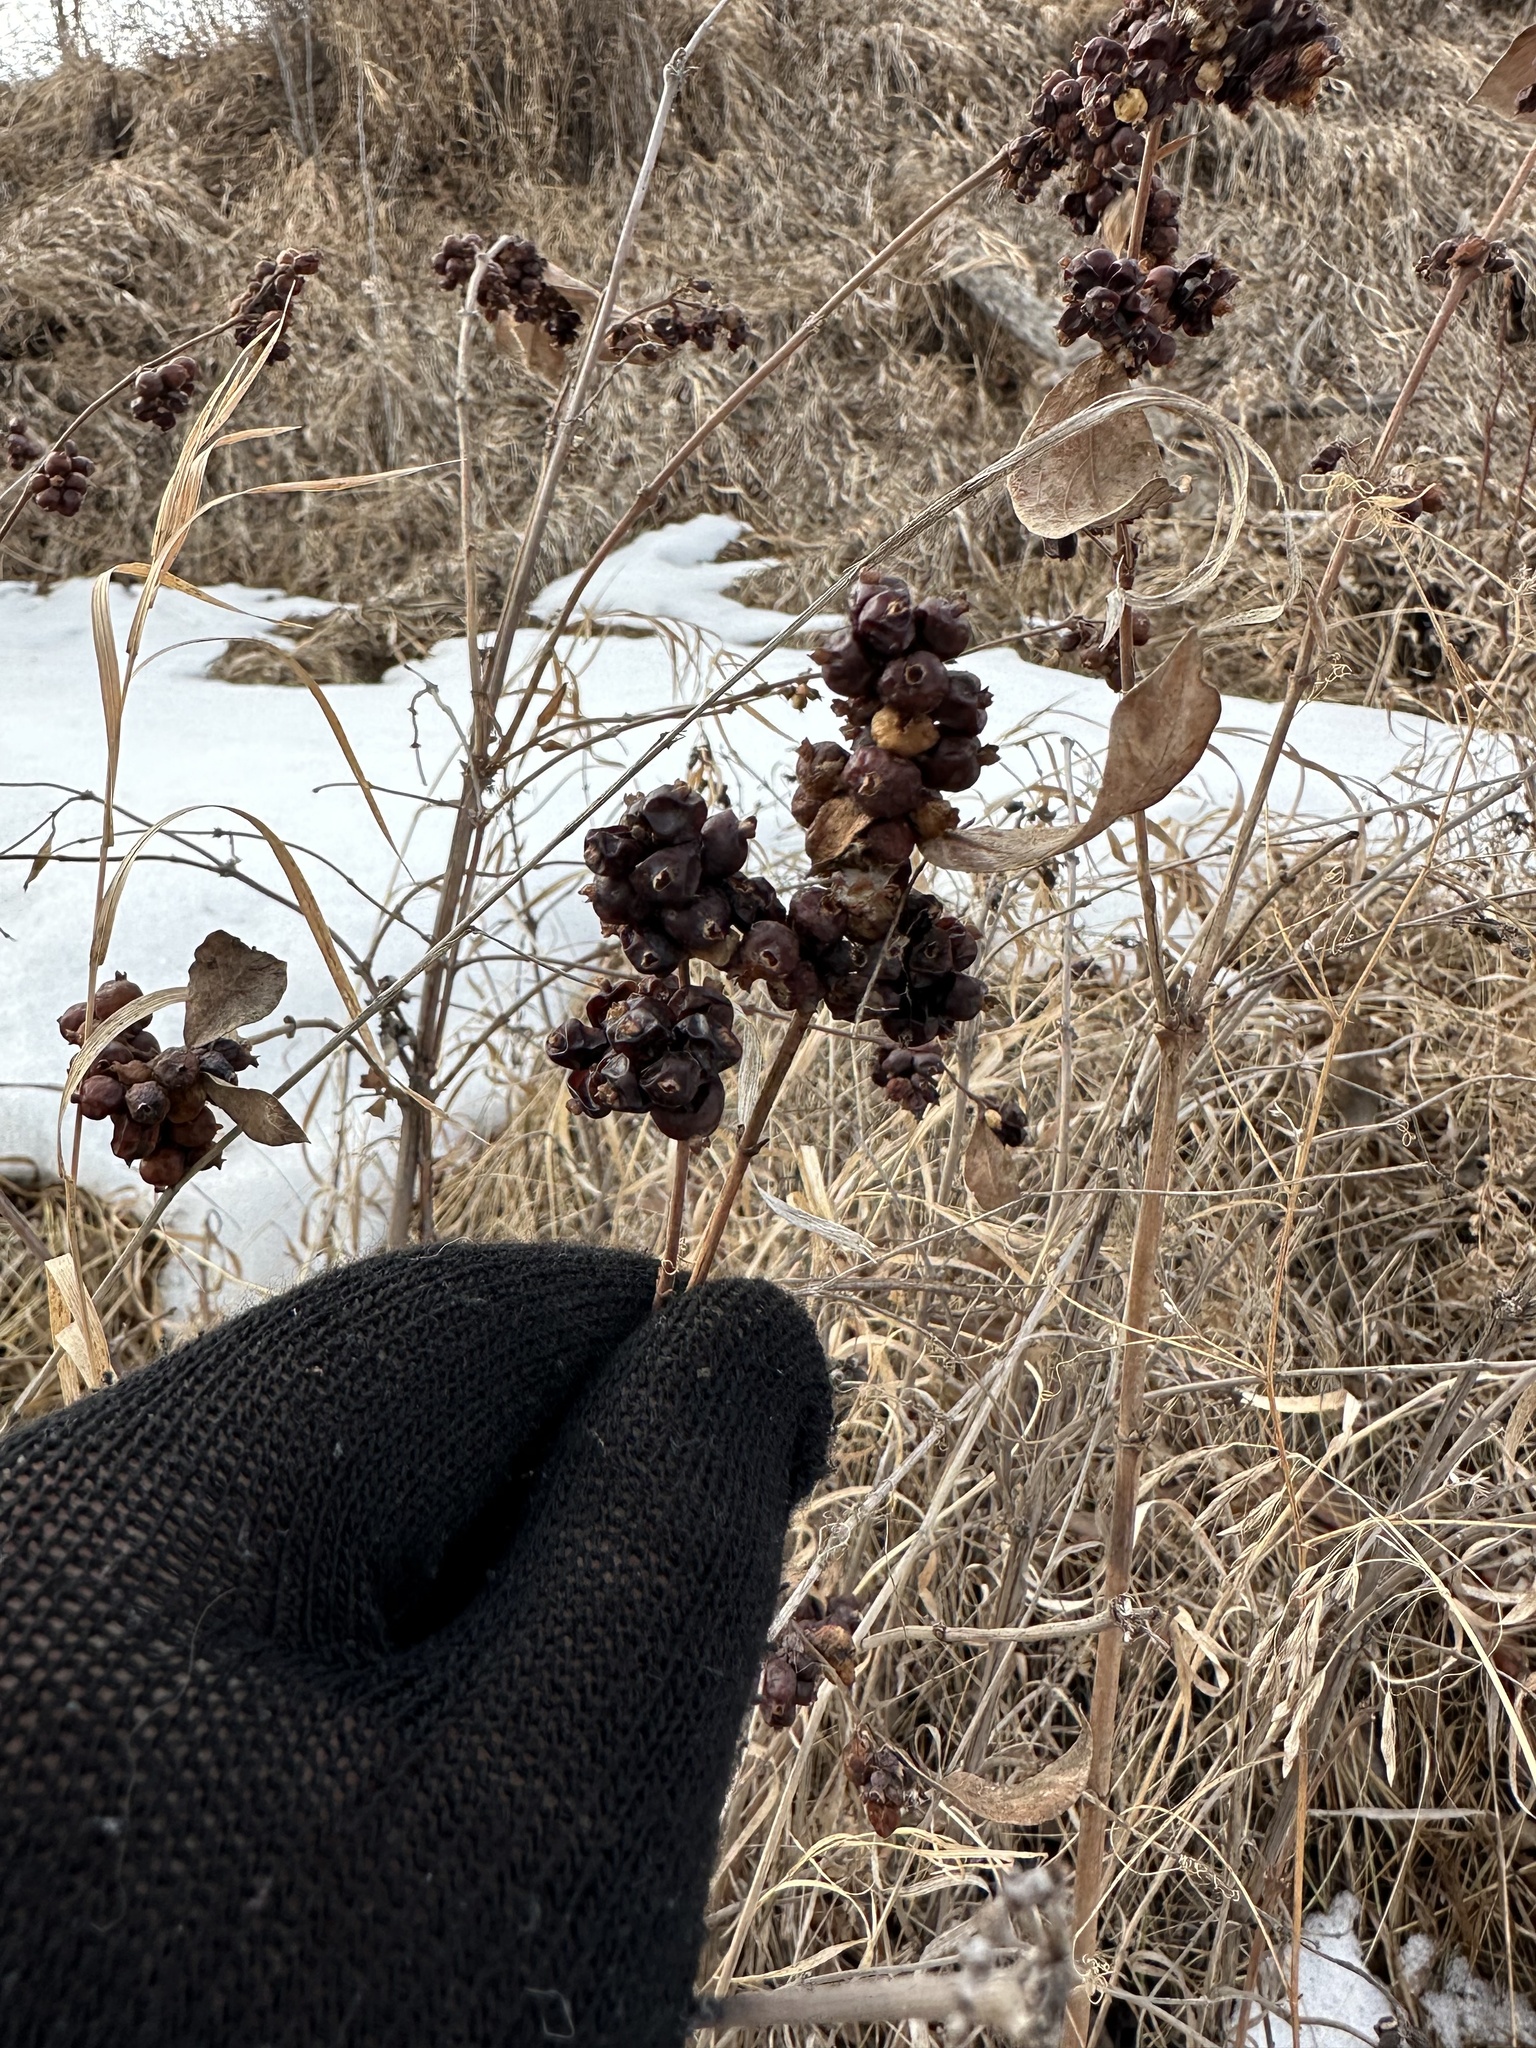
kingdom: Plantae
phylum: Tracheophyta
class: Magnoliopsida
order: Dipsacales
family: Caprifoliaceae
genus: Symphoricarpos
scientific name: Symphoricarpos occidentalis
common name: Wolfberry
